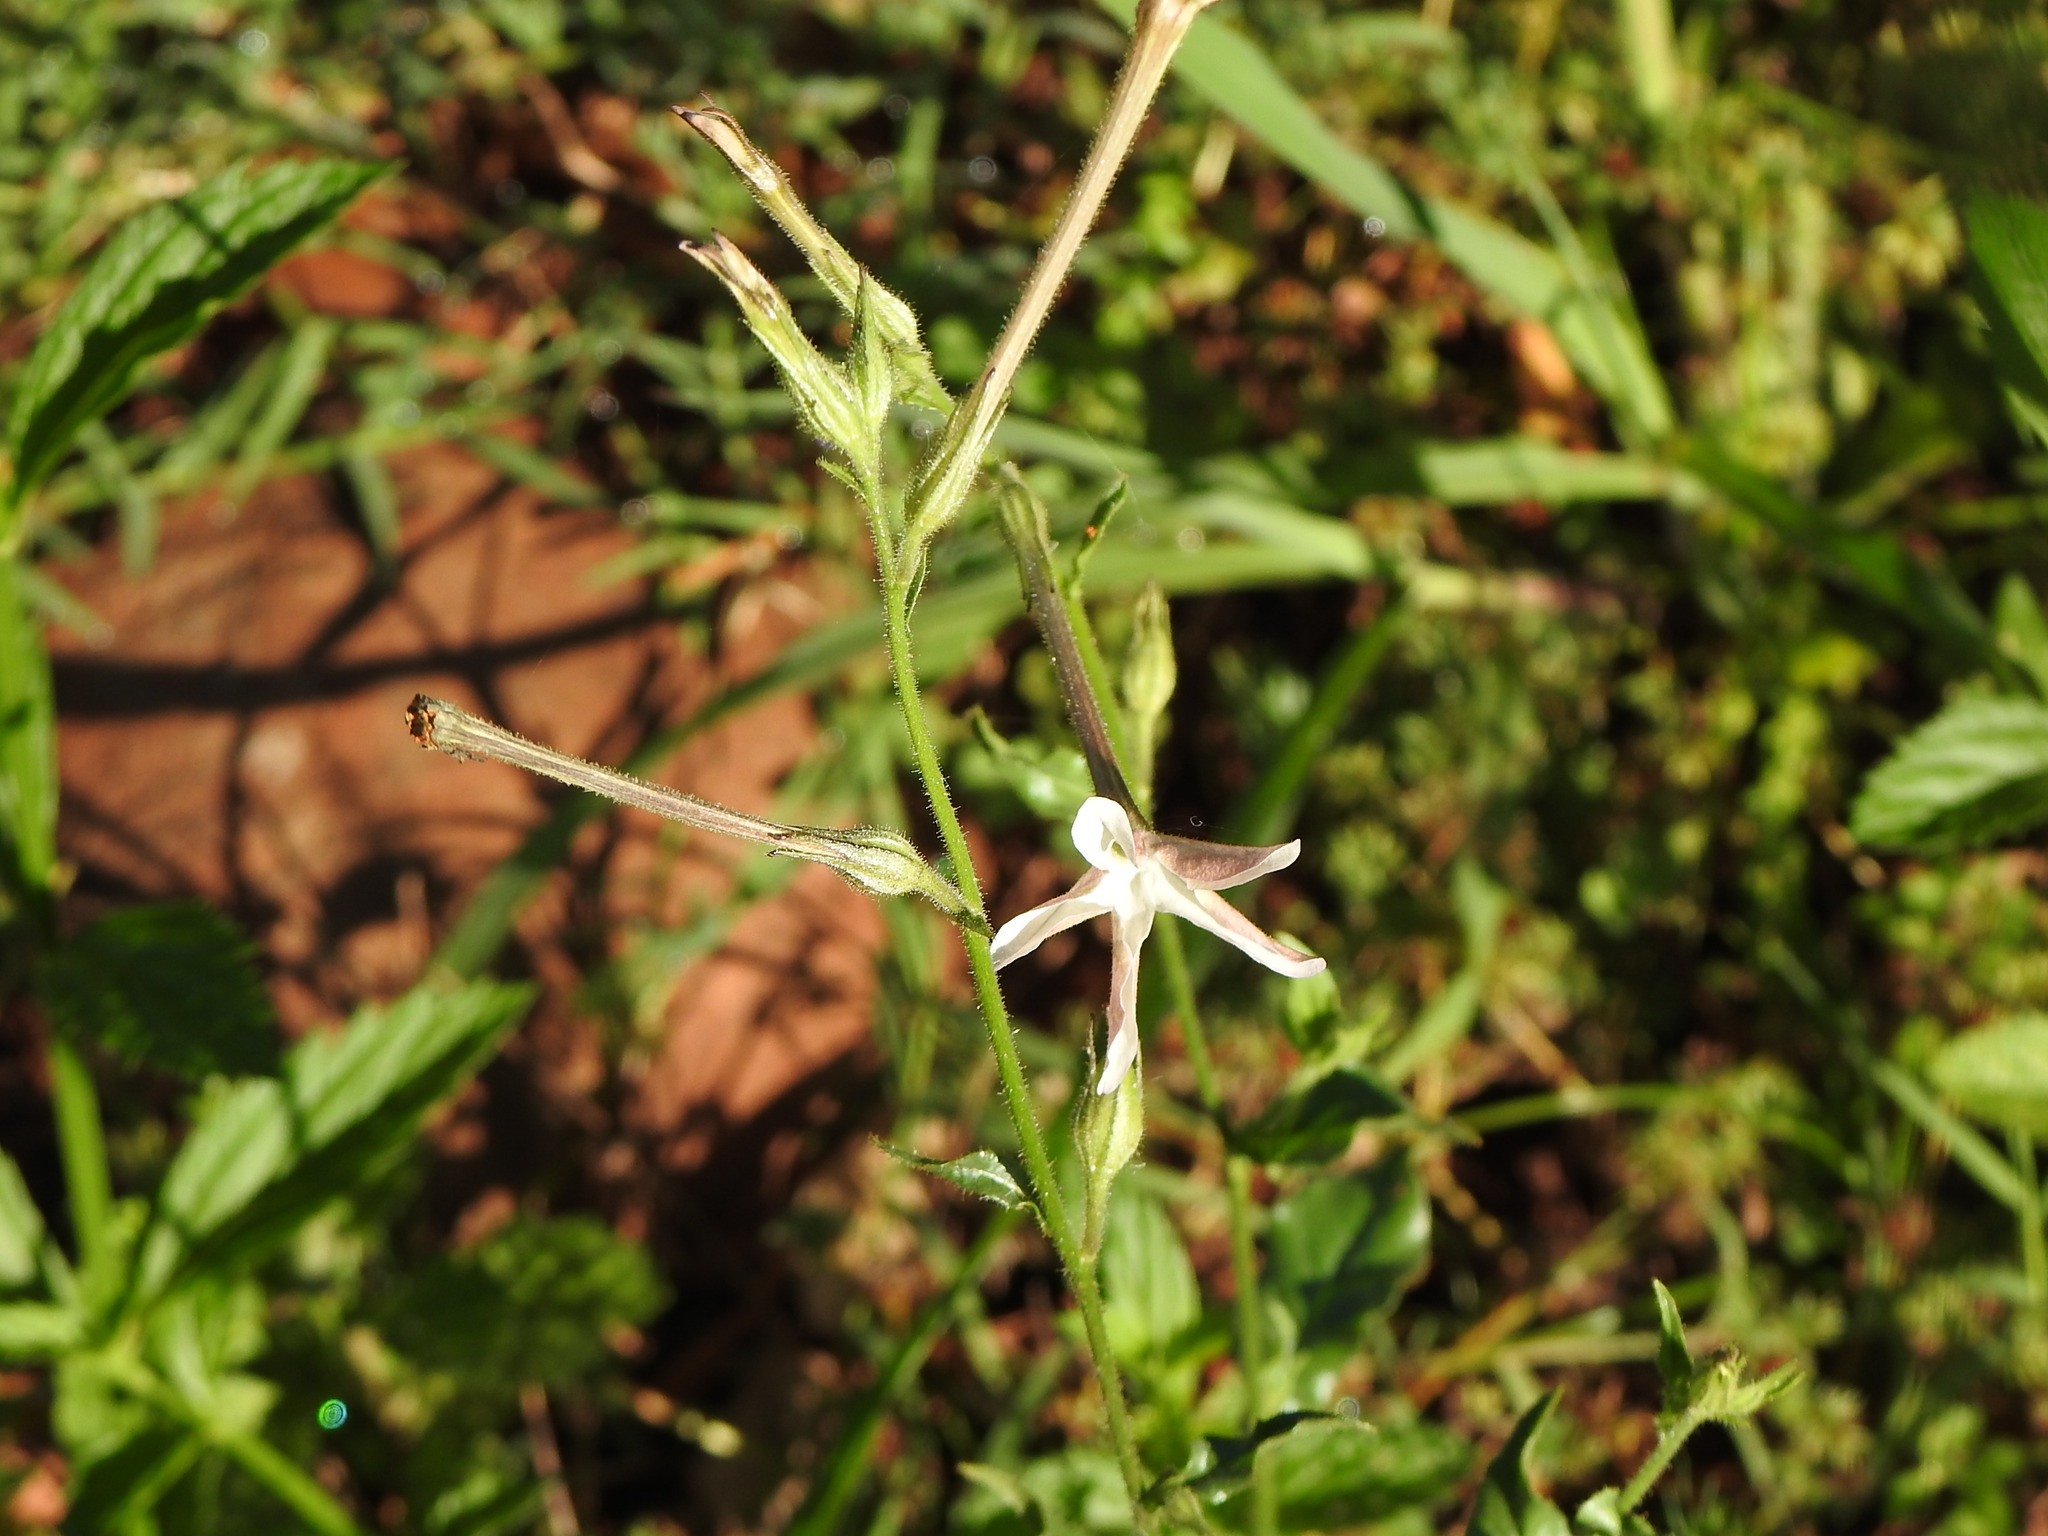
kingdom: Plantae
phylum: Tracheophyta
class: Magnoliopsida
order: Solanales
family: Solanaceae
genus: Nicotiana
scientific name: Nicotiana longiflora
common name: Long-flowered tobacco
